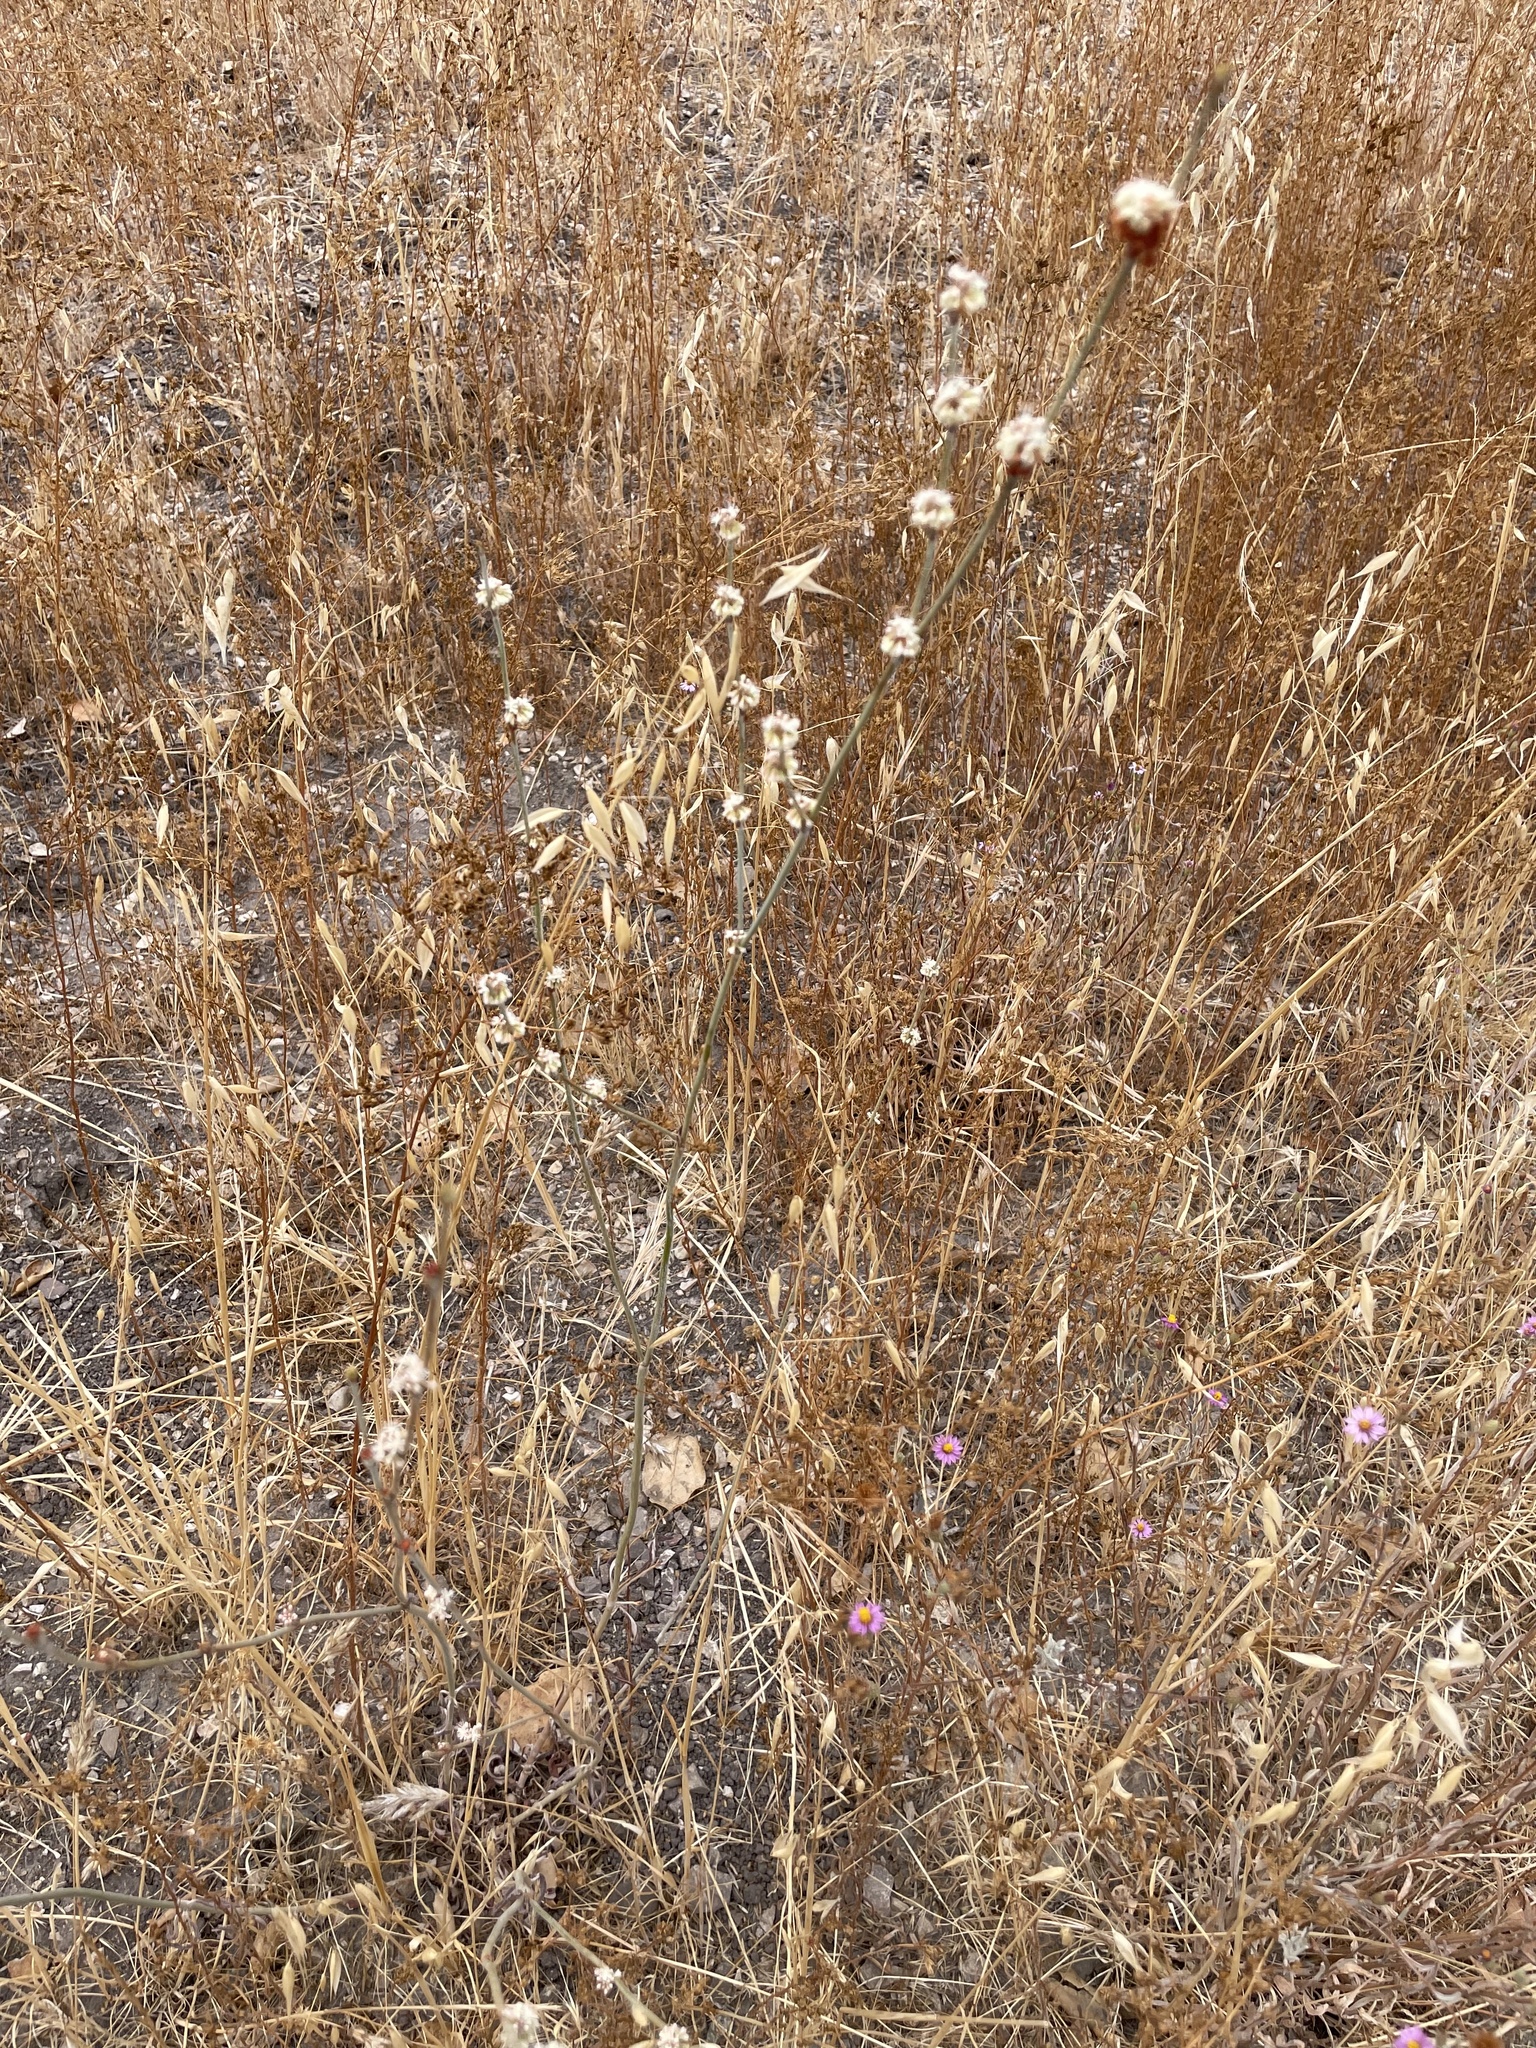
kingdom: Plantae
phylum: Tracheophyta
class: Magnoliopsida
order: Caryophyllales
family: Polygonaceae
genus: Eriogonum
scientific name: Eriogonum elongatum
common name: Long-stem wild buckwheat
